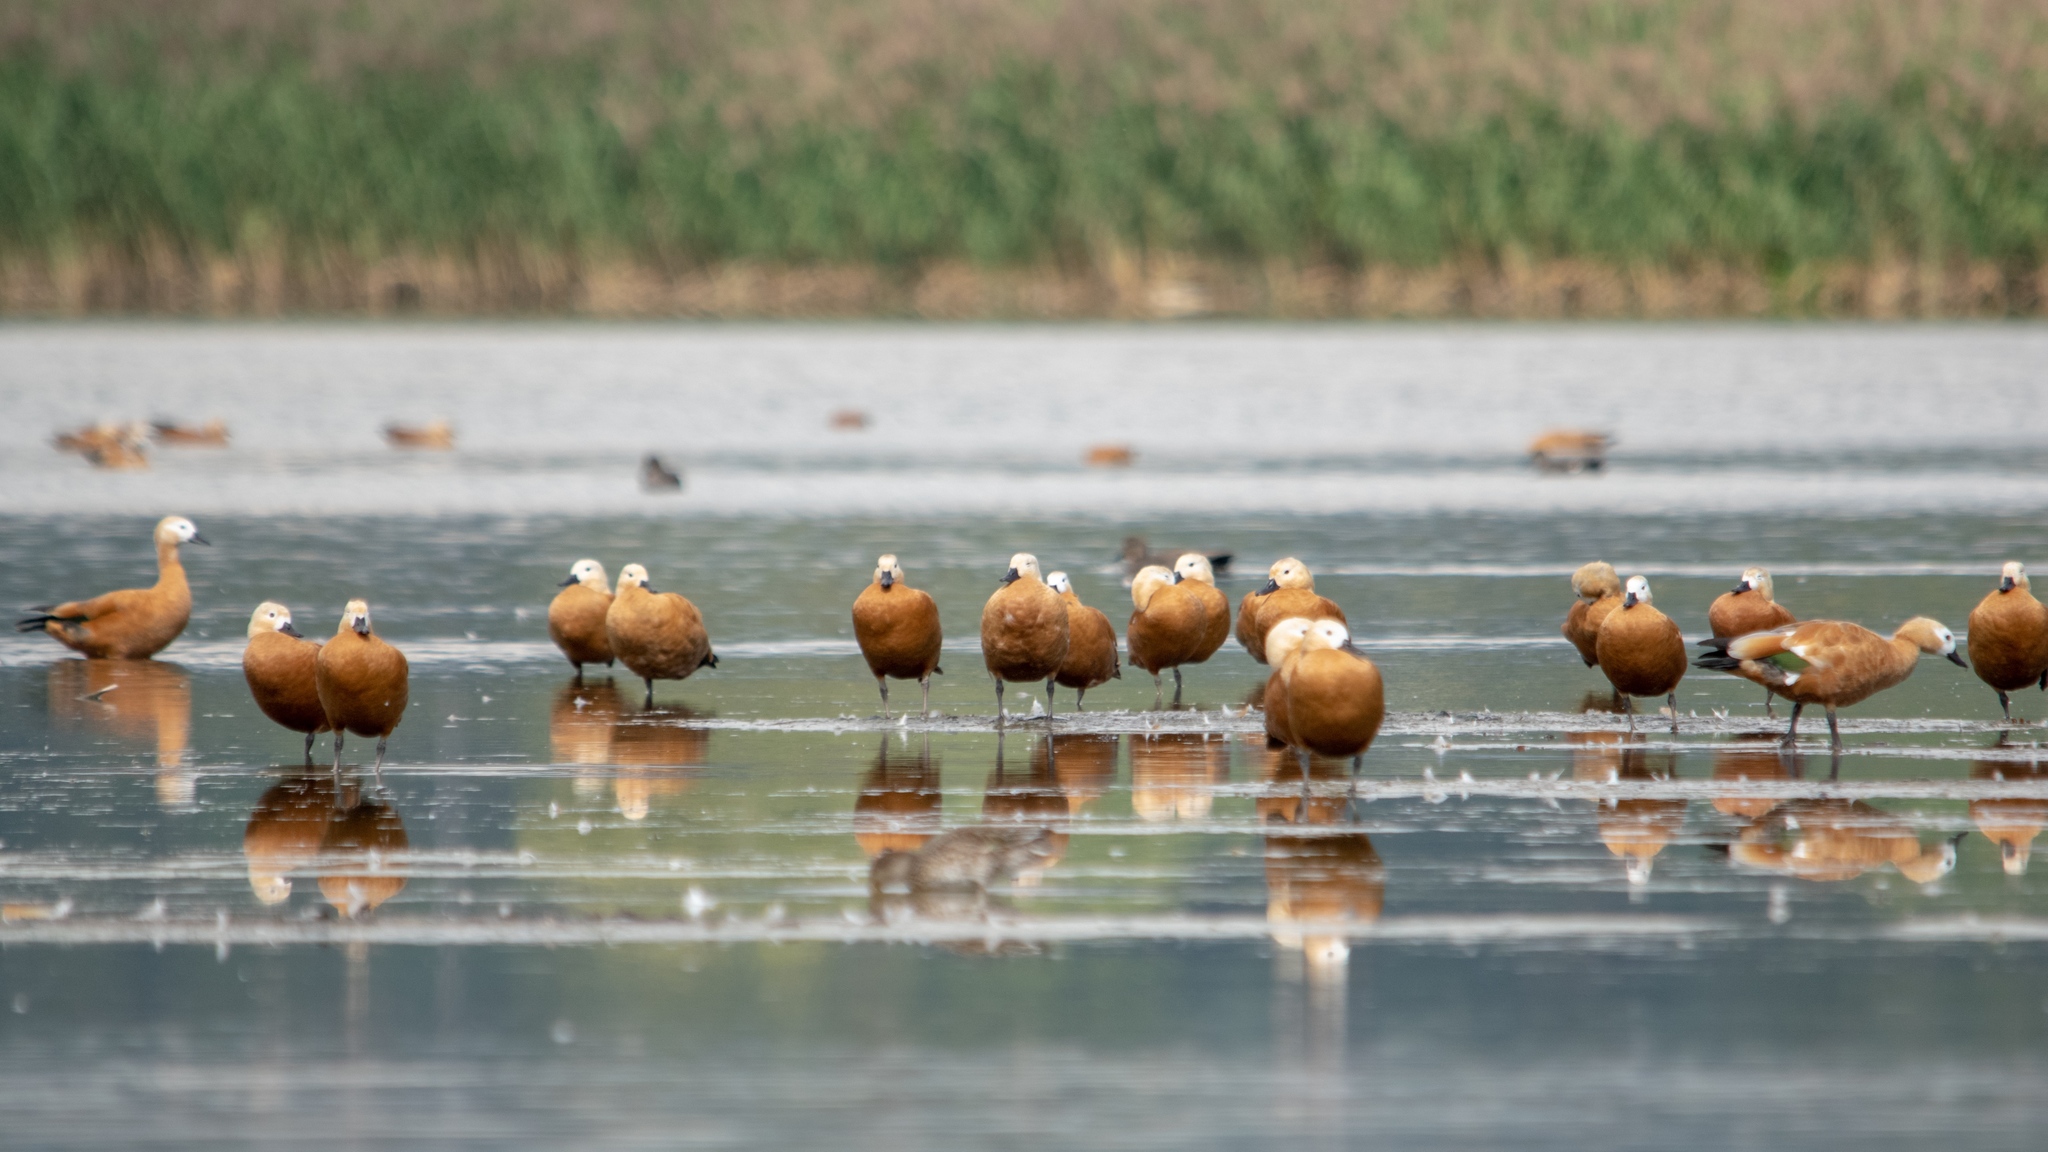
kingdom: Animalia
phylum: Chordata
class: Aves
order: Anseriformes
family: Anatidae
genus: Tadorna
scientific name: Tadorna ferruginea
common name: Ruddy shelduck
